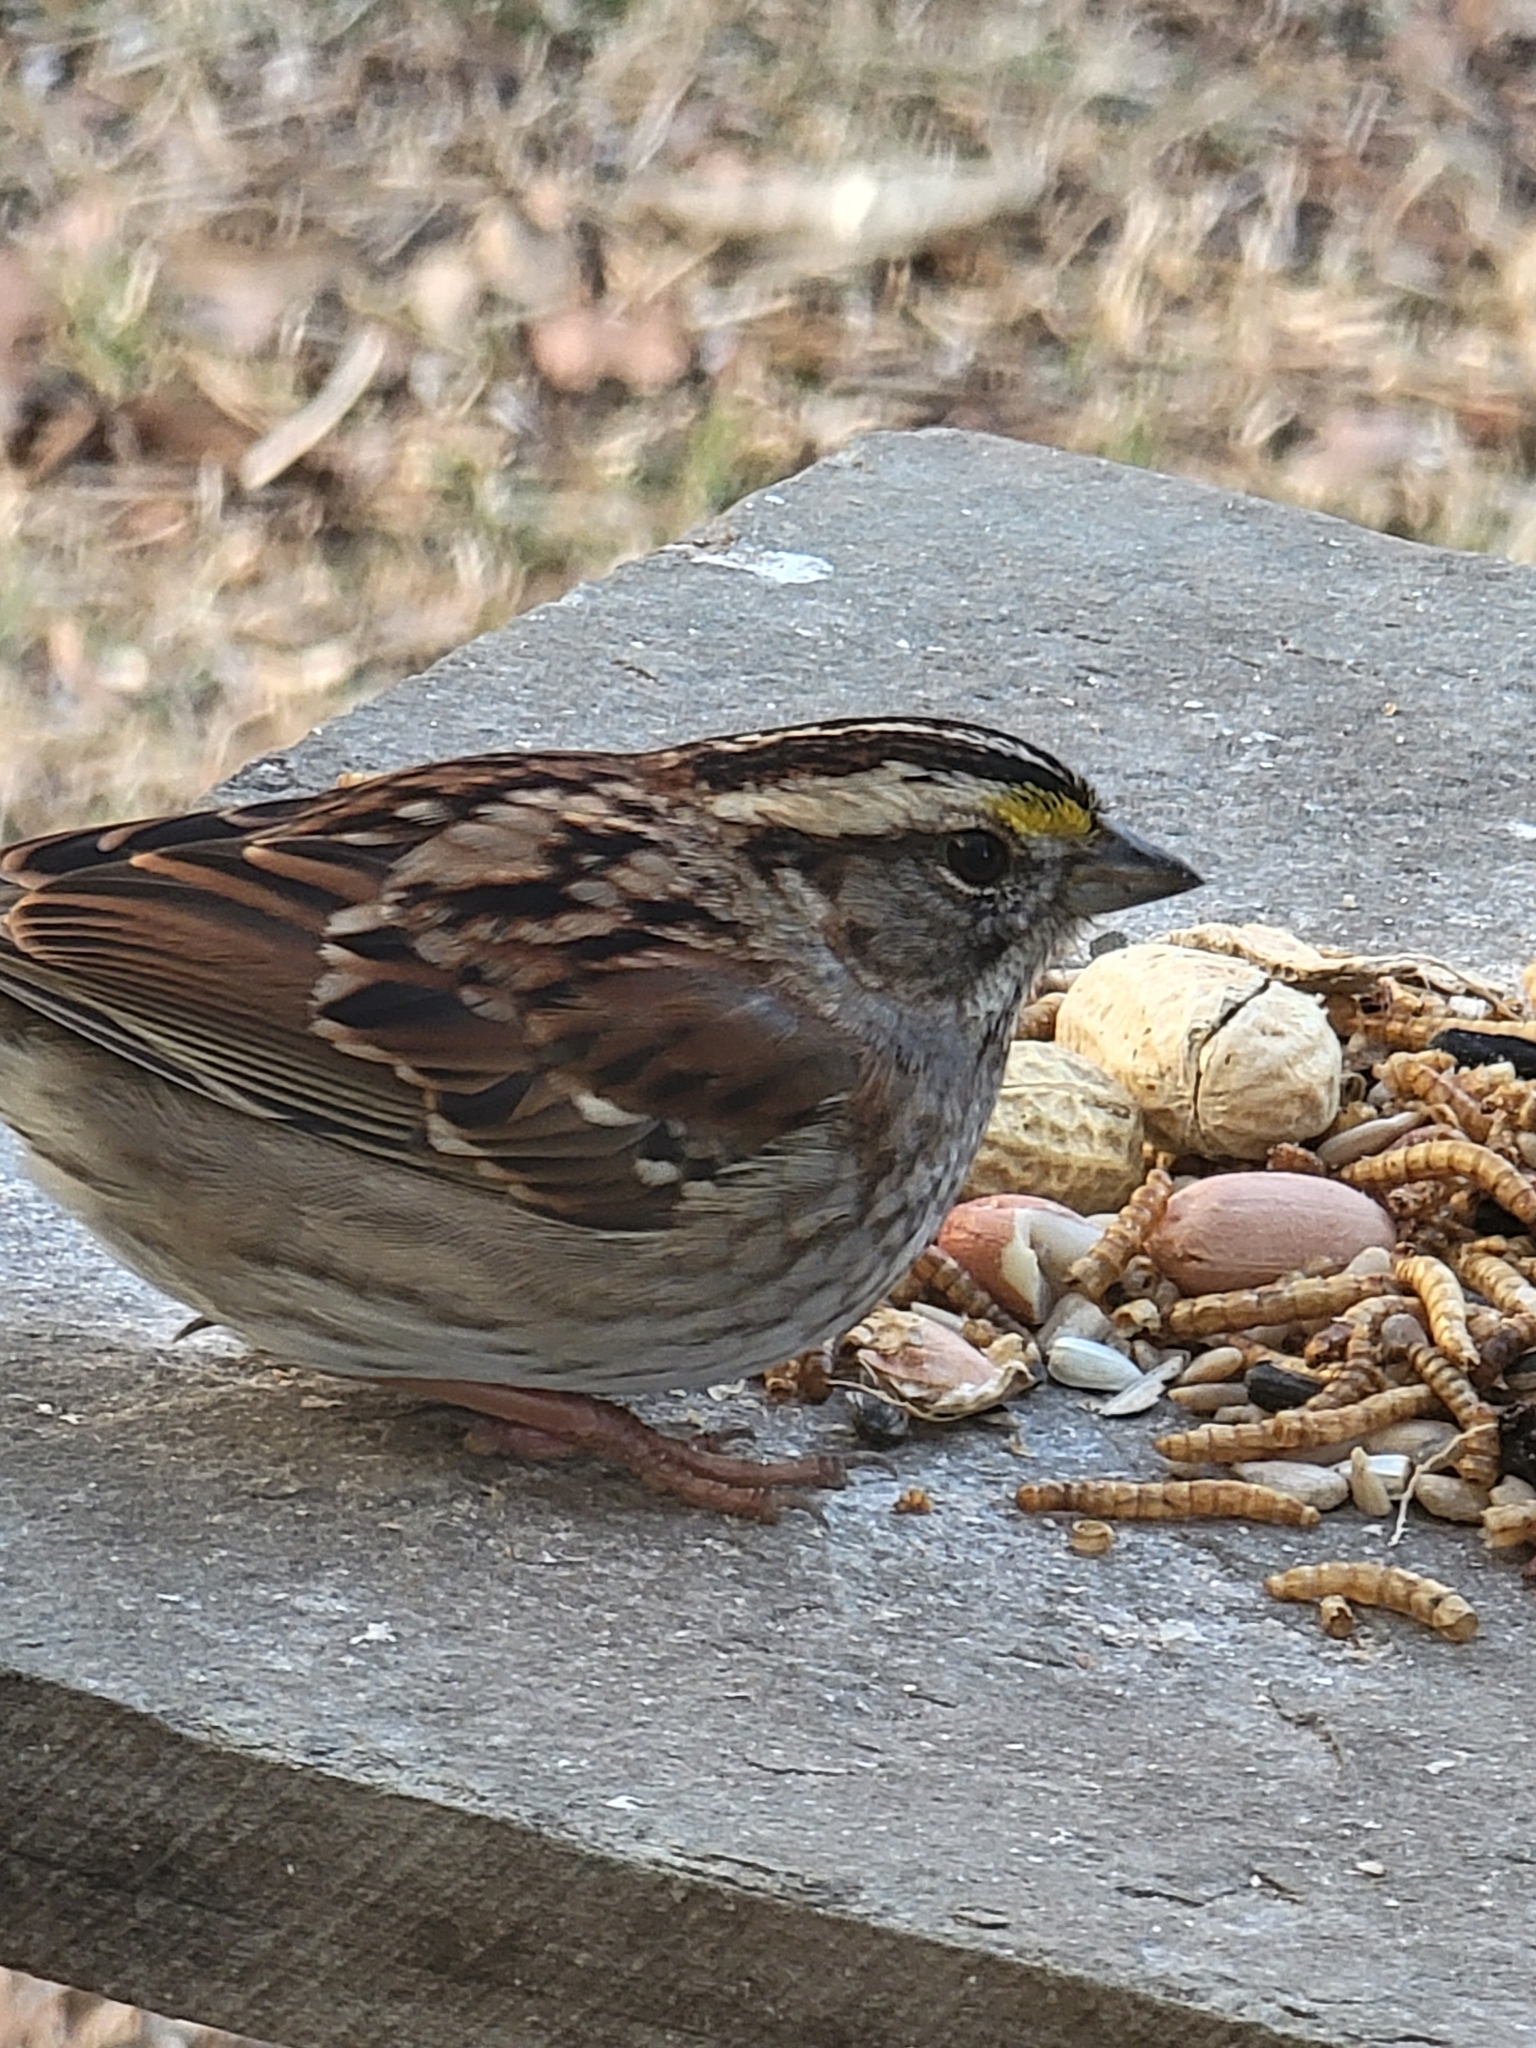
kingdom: Animalia
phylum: Chordata
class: Aves
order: Passeriformes
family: Passerellidae
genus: Zonotrichia
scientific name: Zonotrichia albicollis
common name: White-throated sparrow
